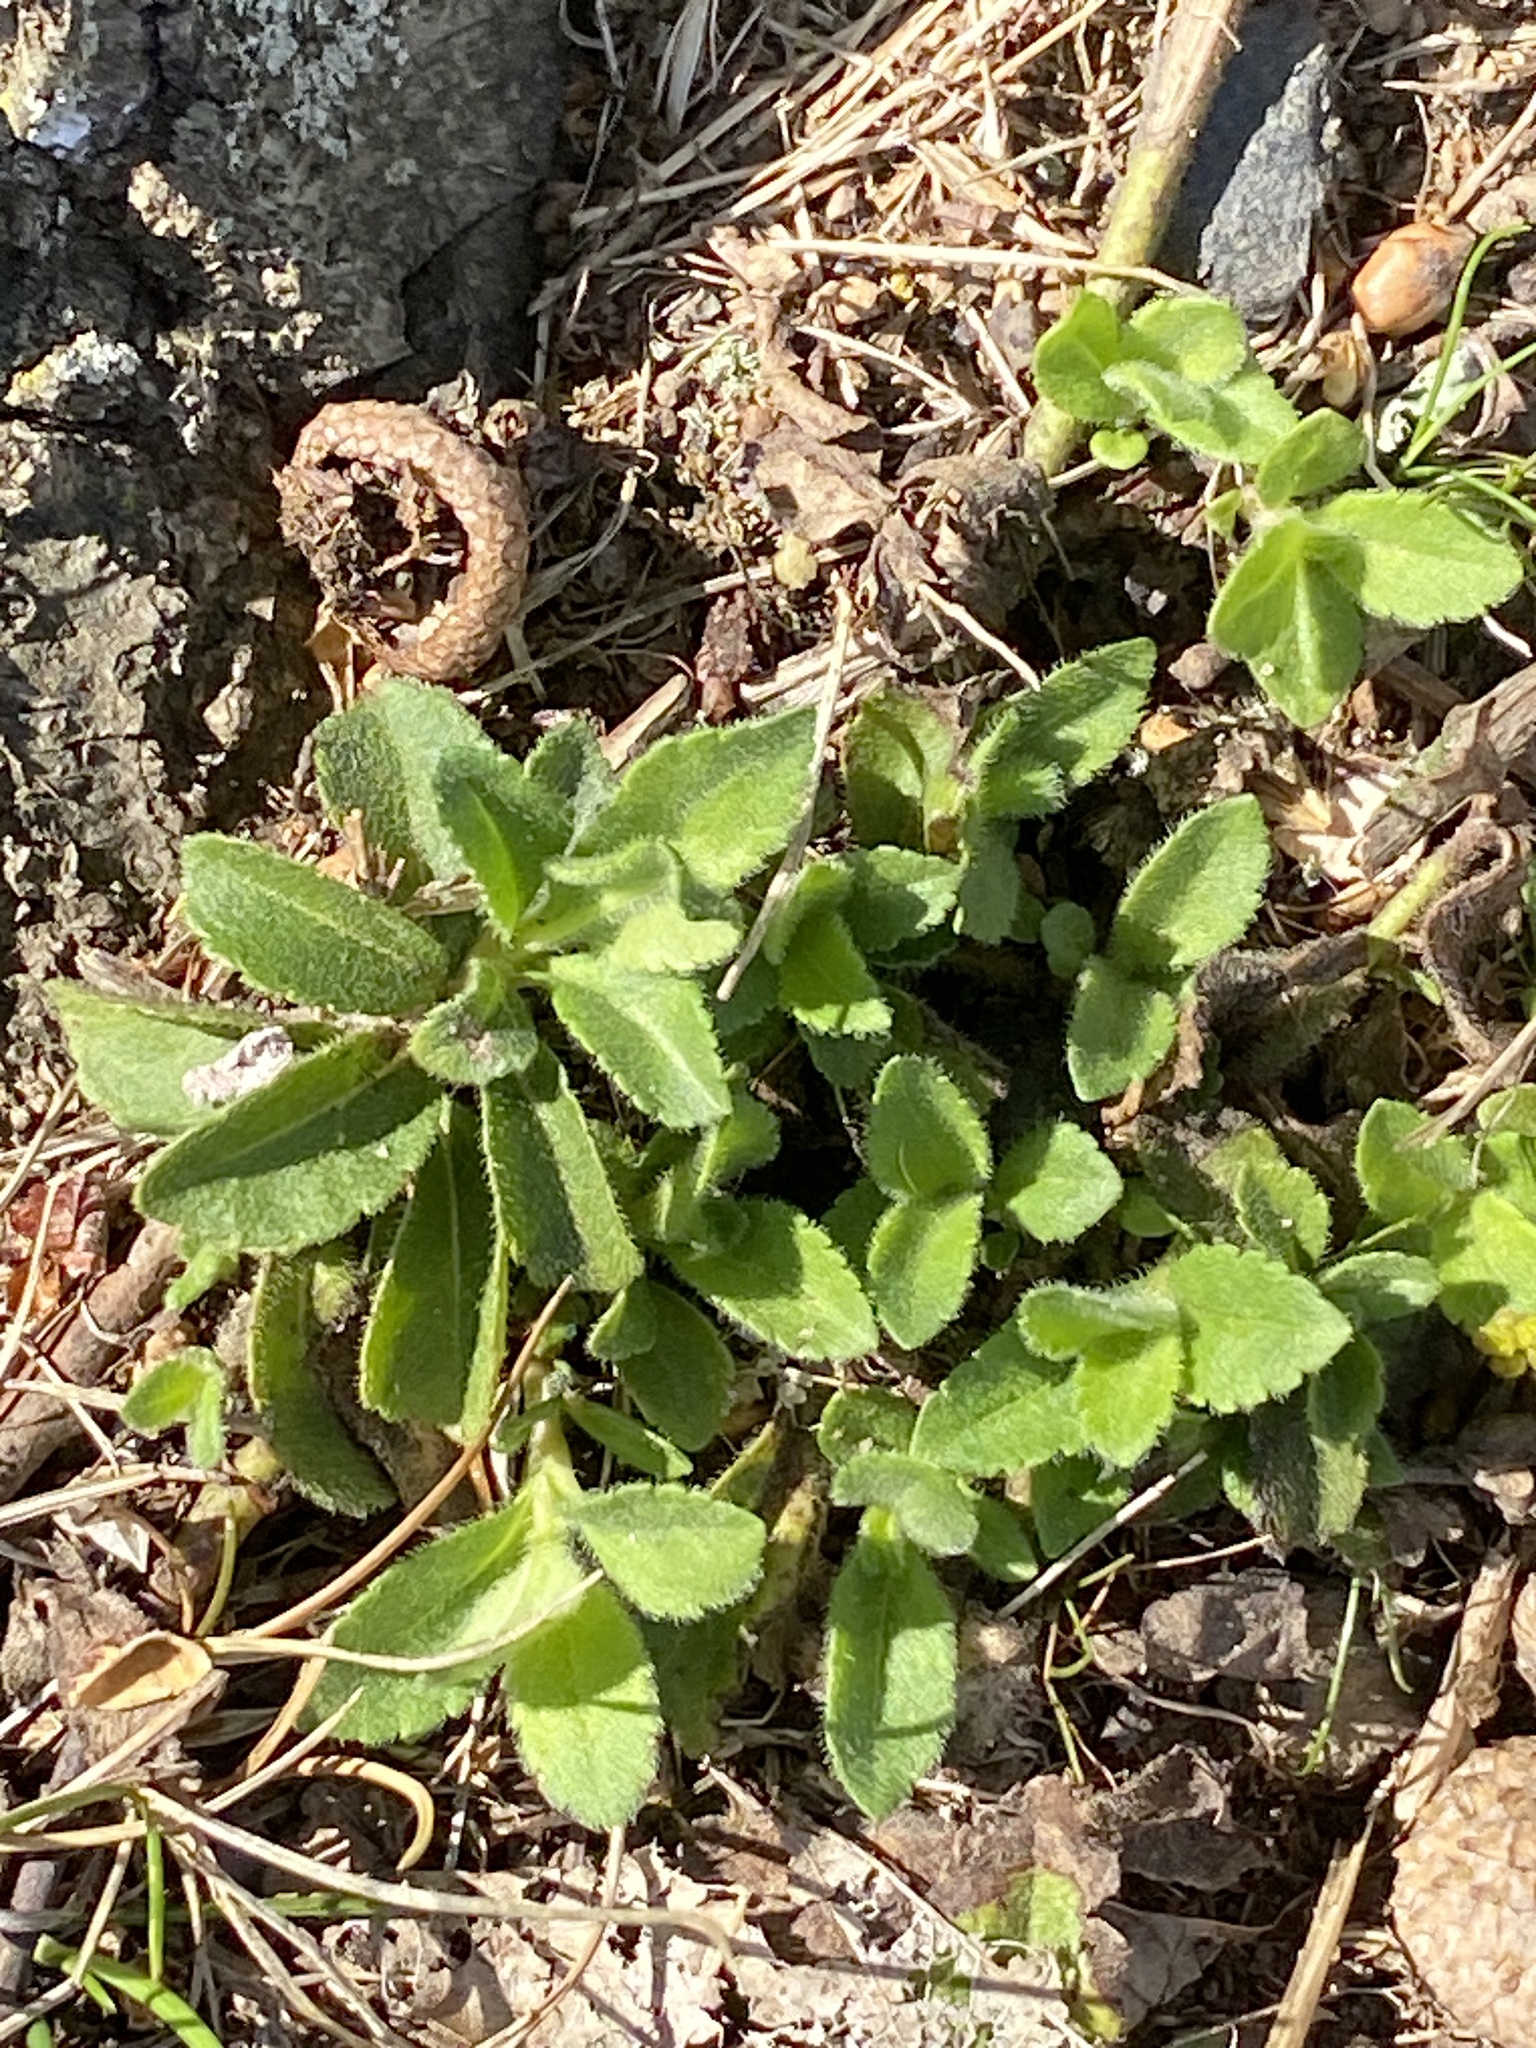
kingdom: Plantae
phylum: Tracheophyta
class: Magnoliopsida
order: Lamiales
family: Plantaginaceae
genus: Veronica
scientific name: Veronica officinalis
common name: Common speedwell
